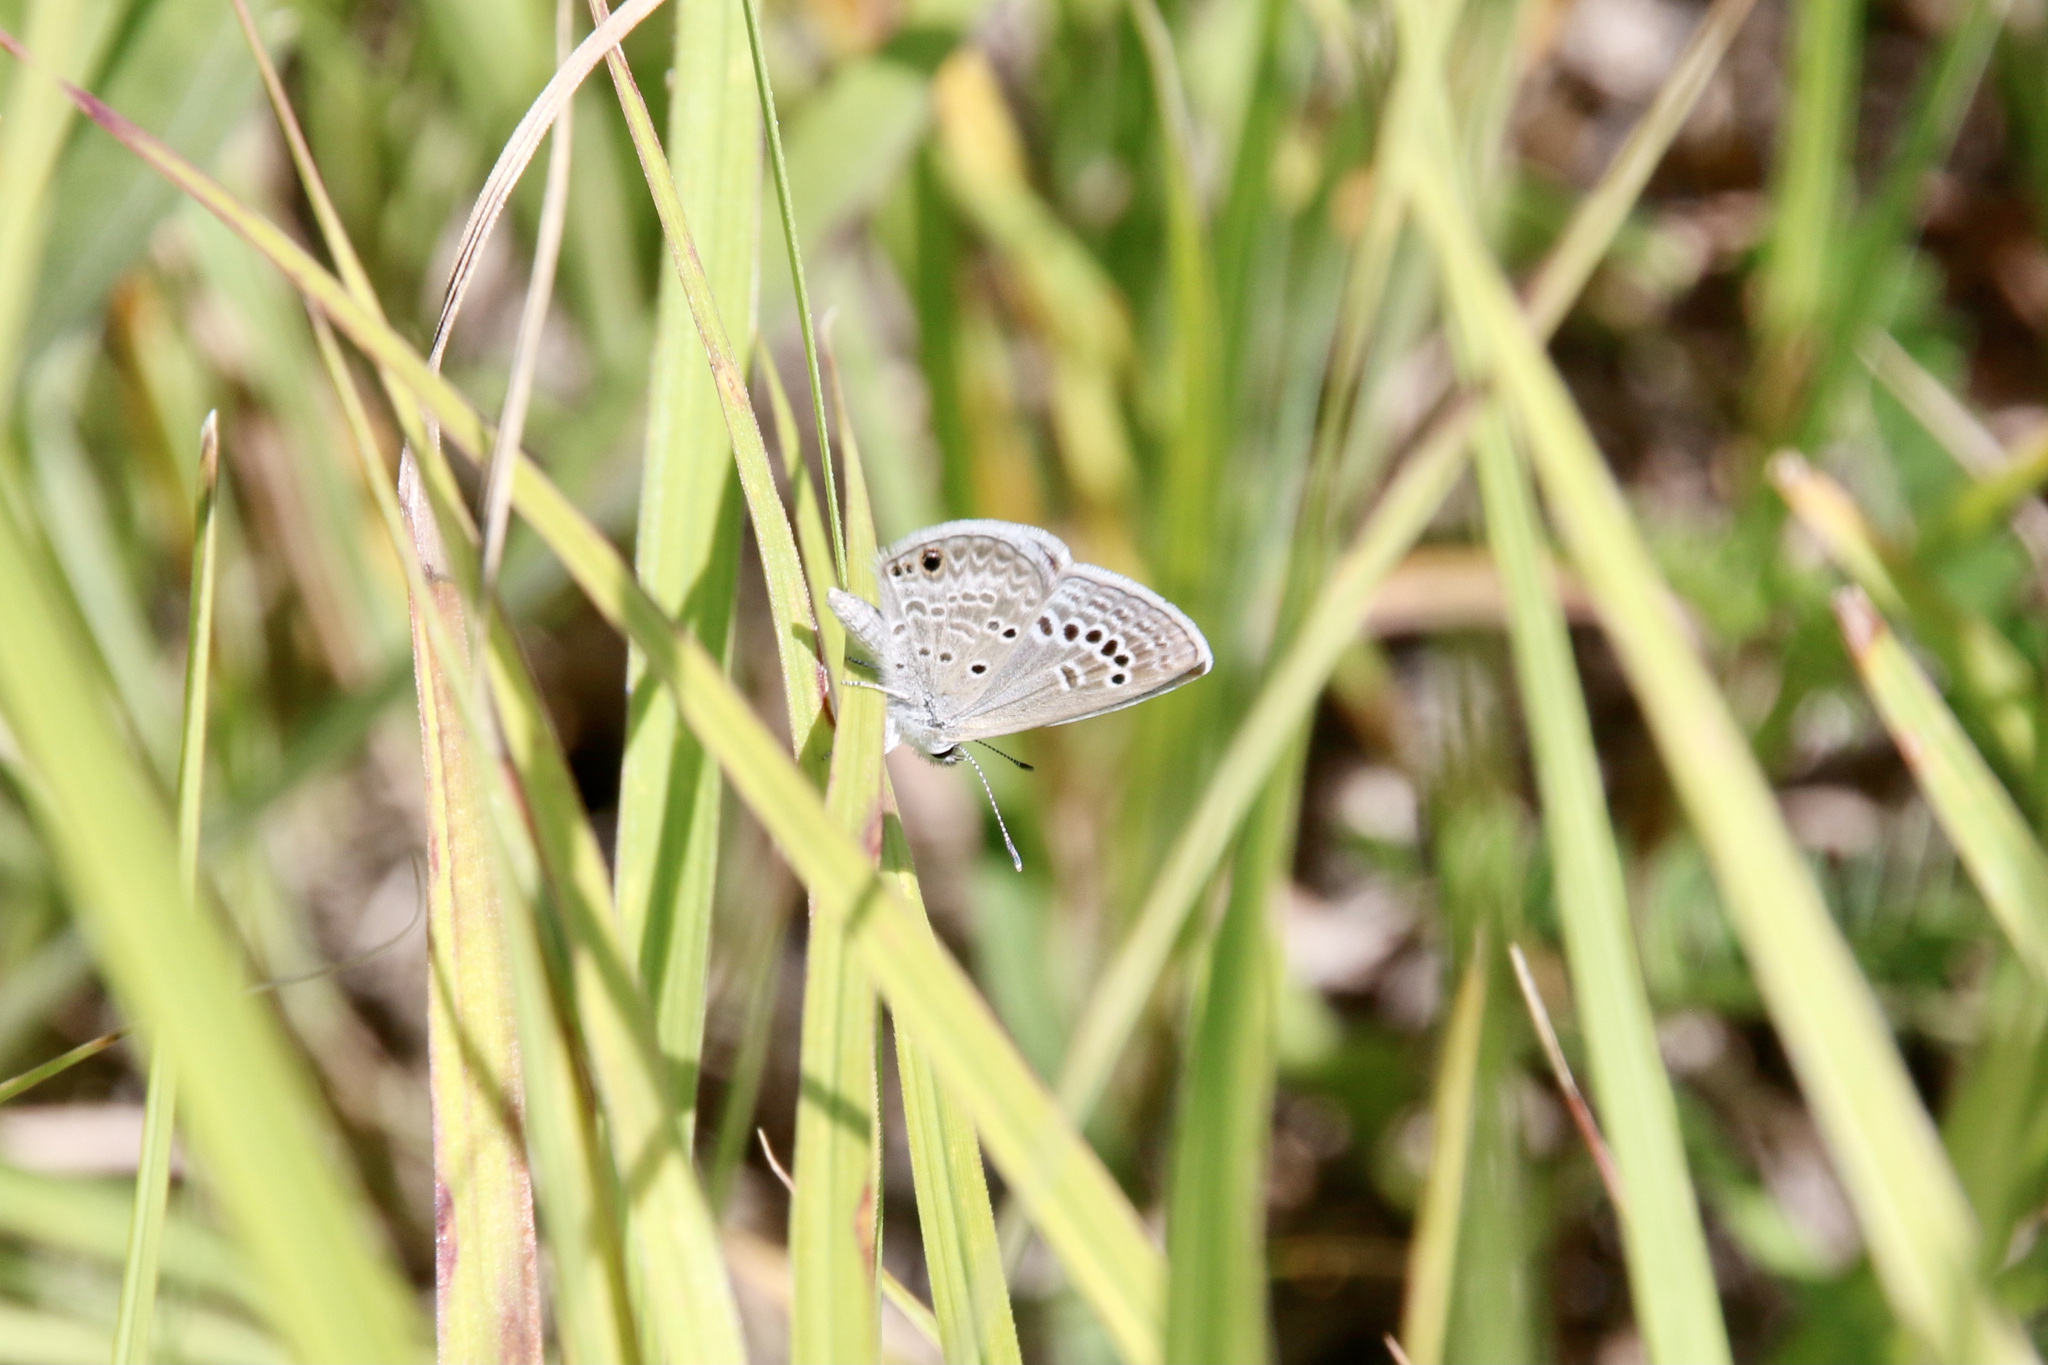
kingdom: Animalia
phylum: Arthropoda
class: Insecta
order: Lepidoptera
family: Lycaenidae
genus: Echinargus
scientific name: Echinargus isola
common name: Reakirt's blue
